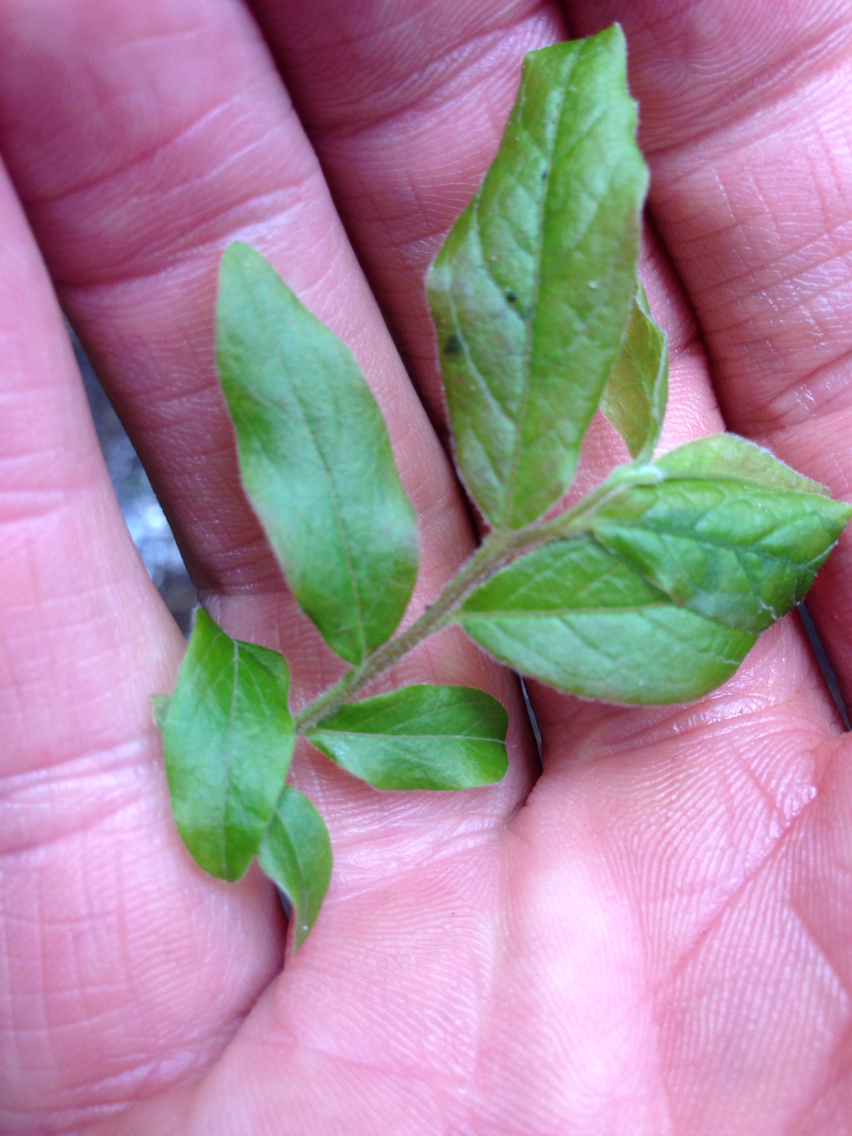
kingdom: Plantae
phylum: Tracheophyta
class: Magnoliopsida
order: Ericales
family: Ericaceae
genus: Vaccinium
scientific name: Vaccinium myrtilloides
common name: Canada blueberry
